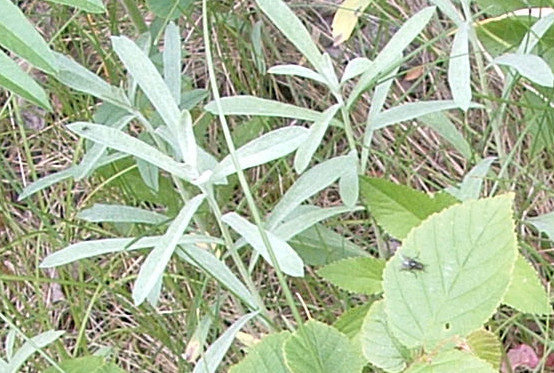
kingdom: Plantae
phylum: Tracheophyta
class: Magnoliopsida
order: Asterales
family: Asteraceae
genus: Artemisia
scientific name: Artemisia ludoviciana
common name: Western mugwort
